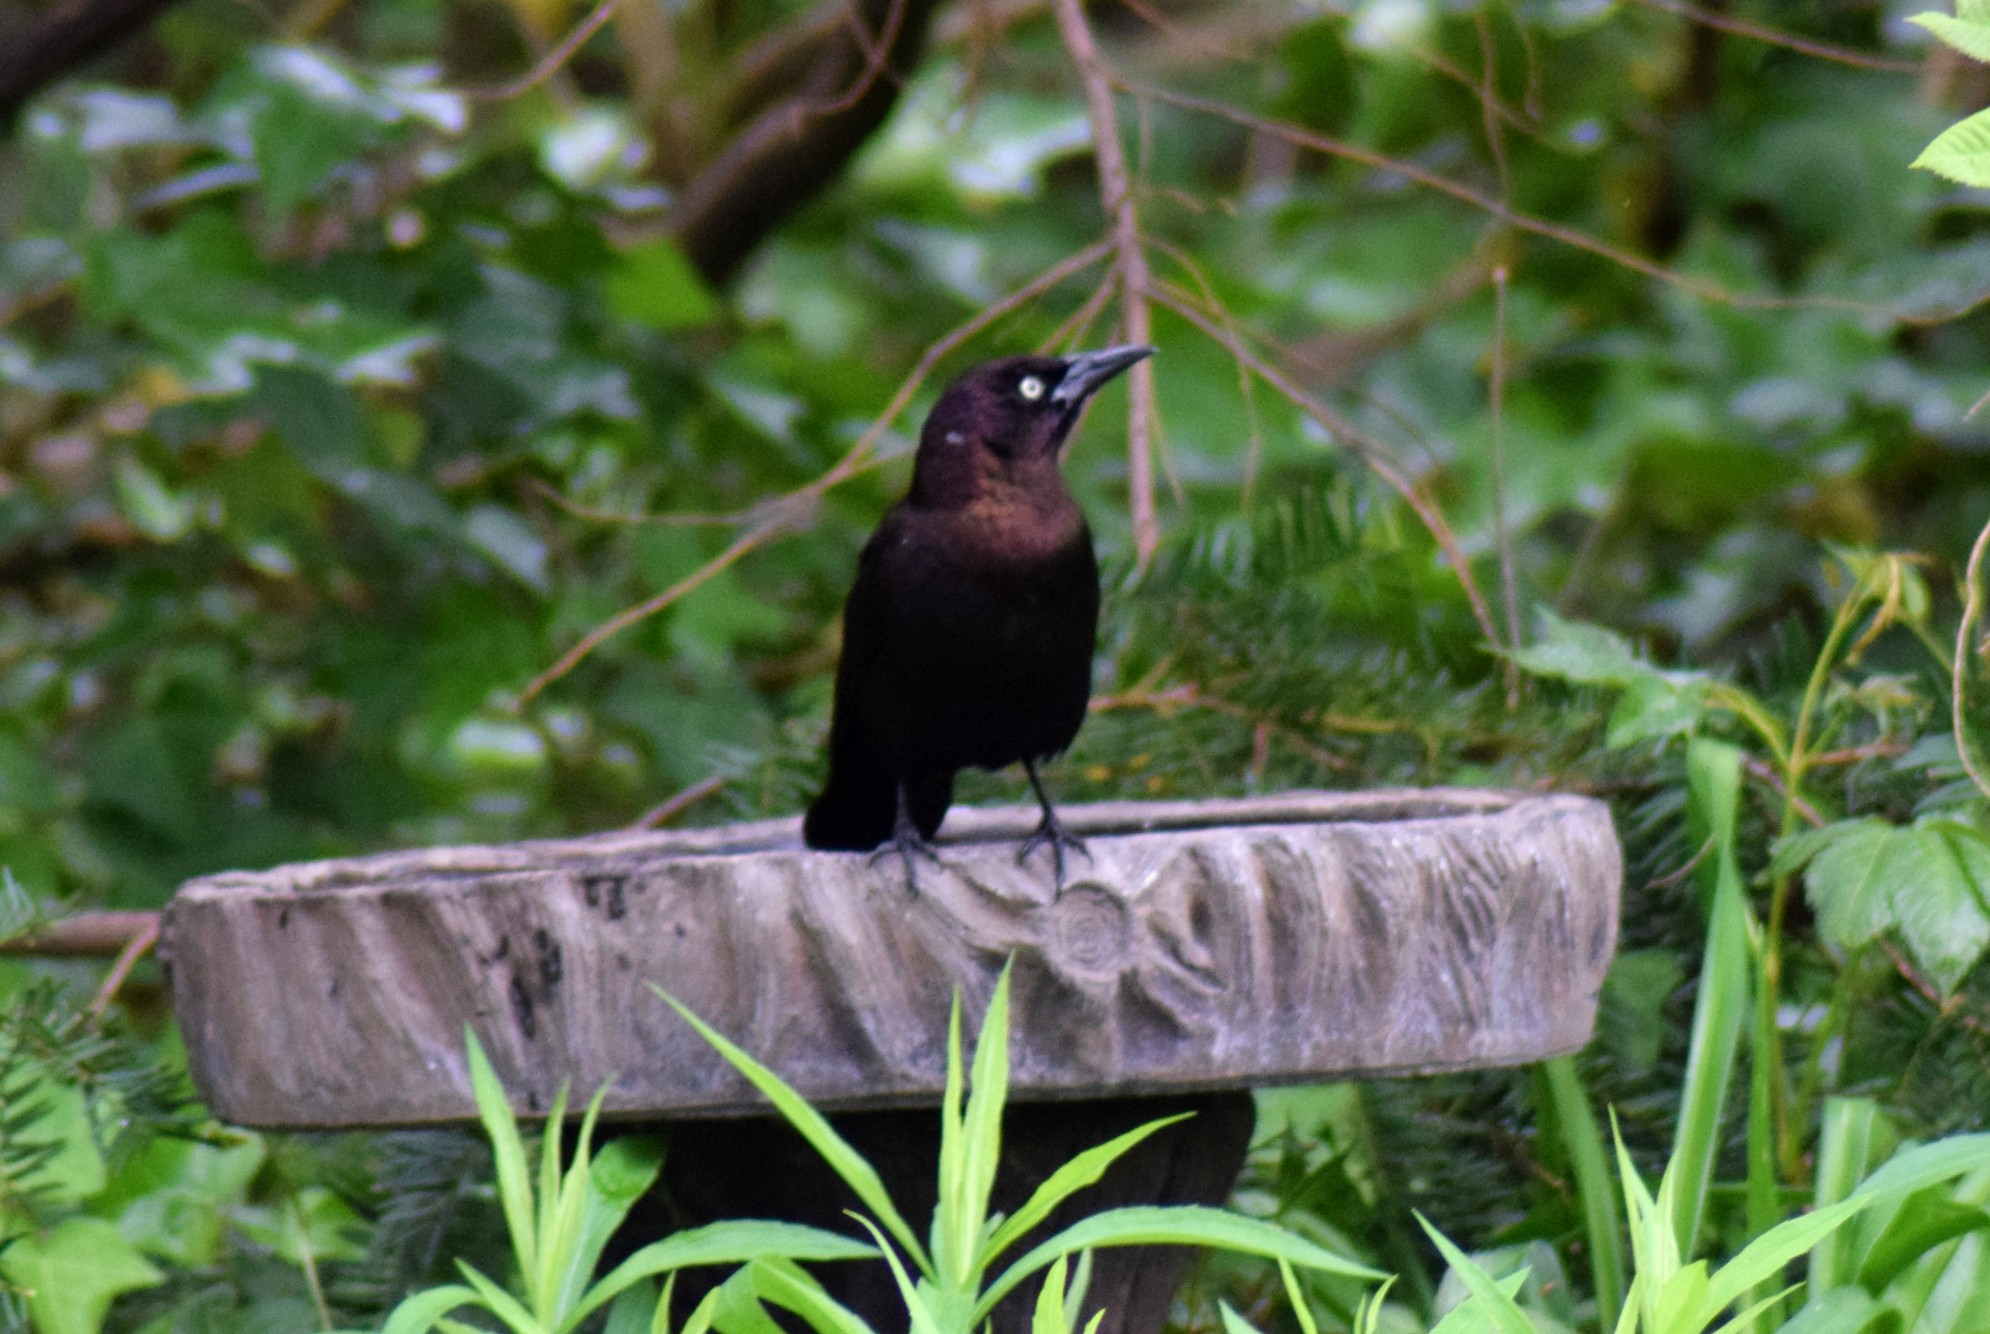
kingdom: Animalia
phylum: Chordata
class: Aves
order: Passeriformes
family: Icteridae
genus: Quiscalus
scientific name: Quiscalus quiscula
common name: Common grackle
